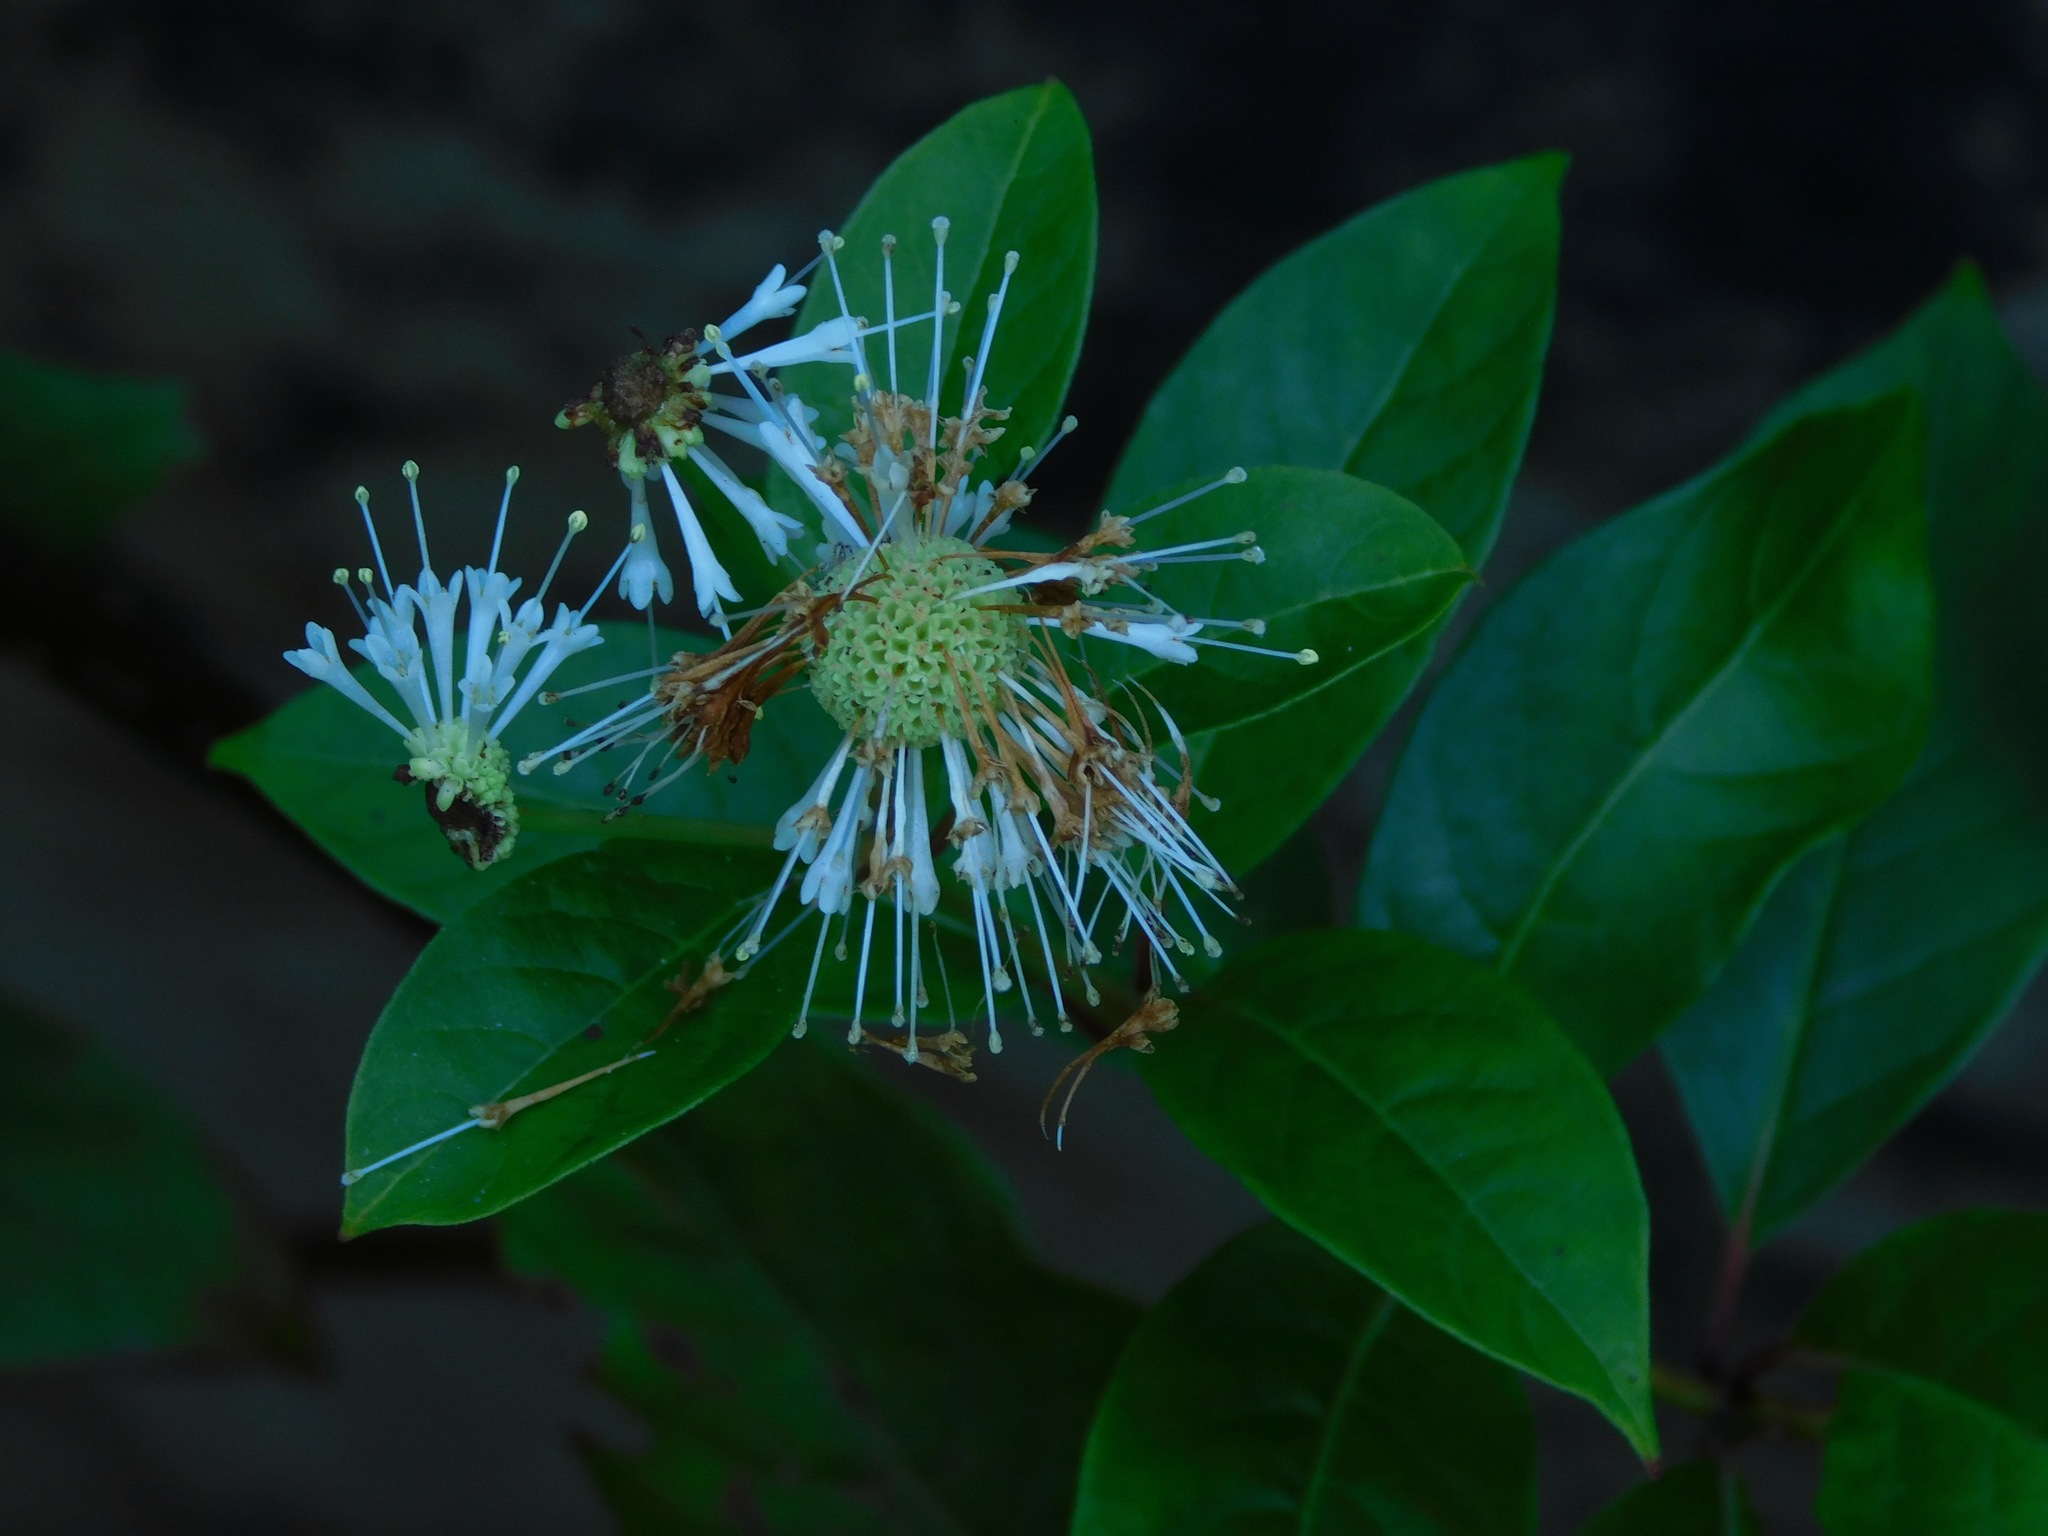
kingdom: Plantae
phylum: Tracheophyta
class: Magnoliopsida
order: Gentianales
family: Rubiaceae
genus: Cephalanthus
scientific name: Cephalanthus occidentalis
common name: Button-willow
